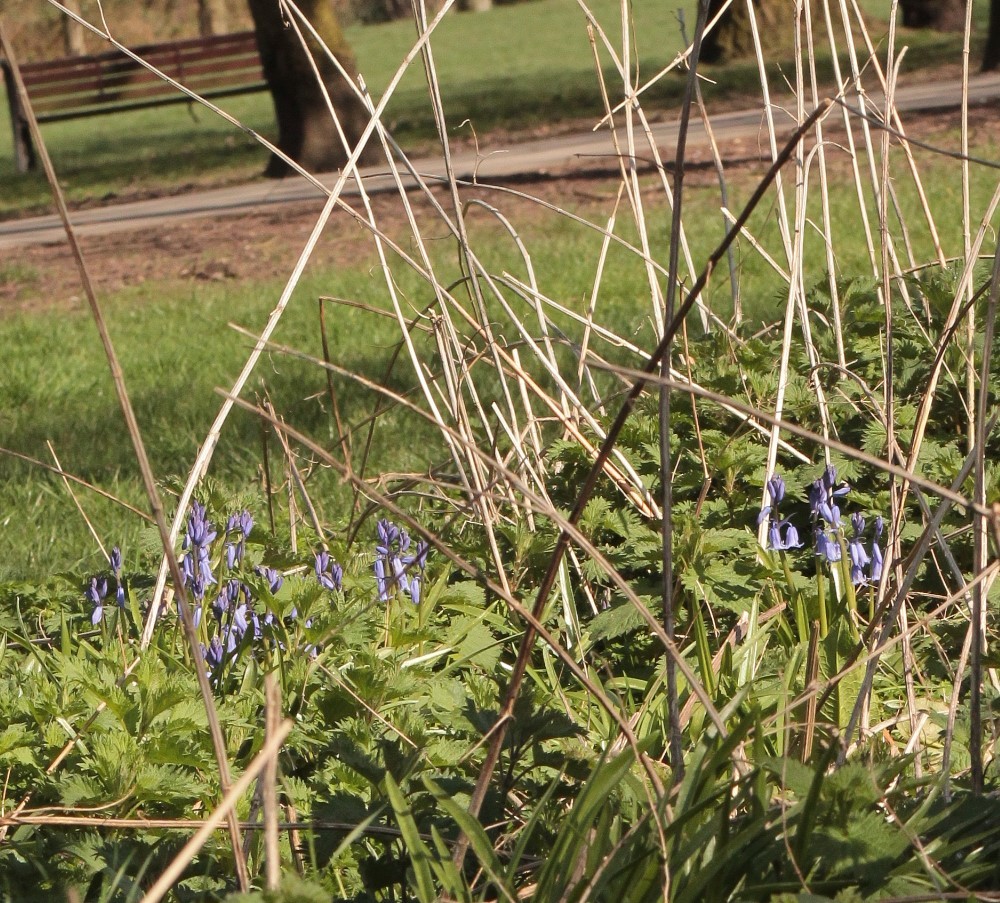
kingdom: Plantae
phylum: Tracheophyta
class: Liliopsida
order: Asparagales
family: Asparagaceae
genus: Hyacinthoides
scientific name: Hyacinthoides massartiana
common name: Hyacinthoides
